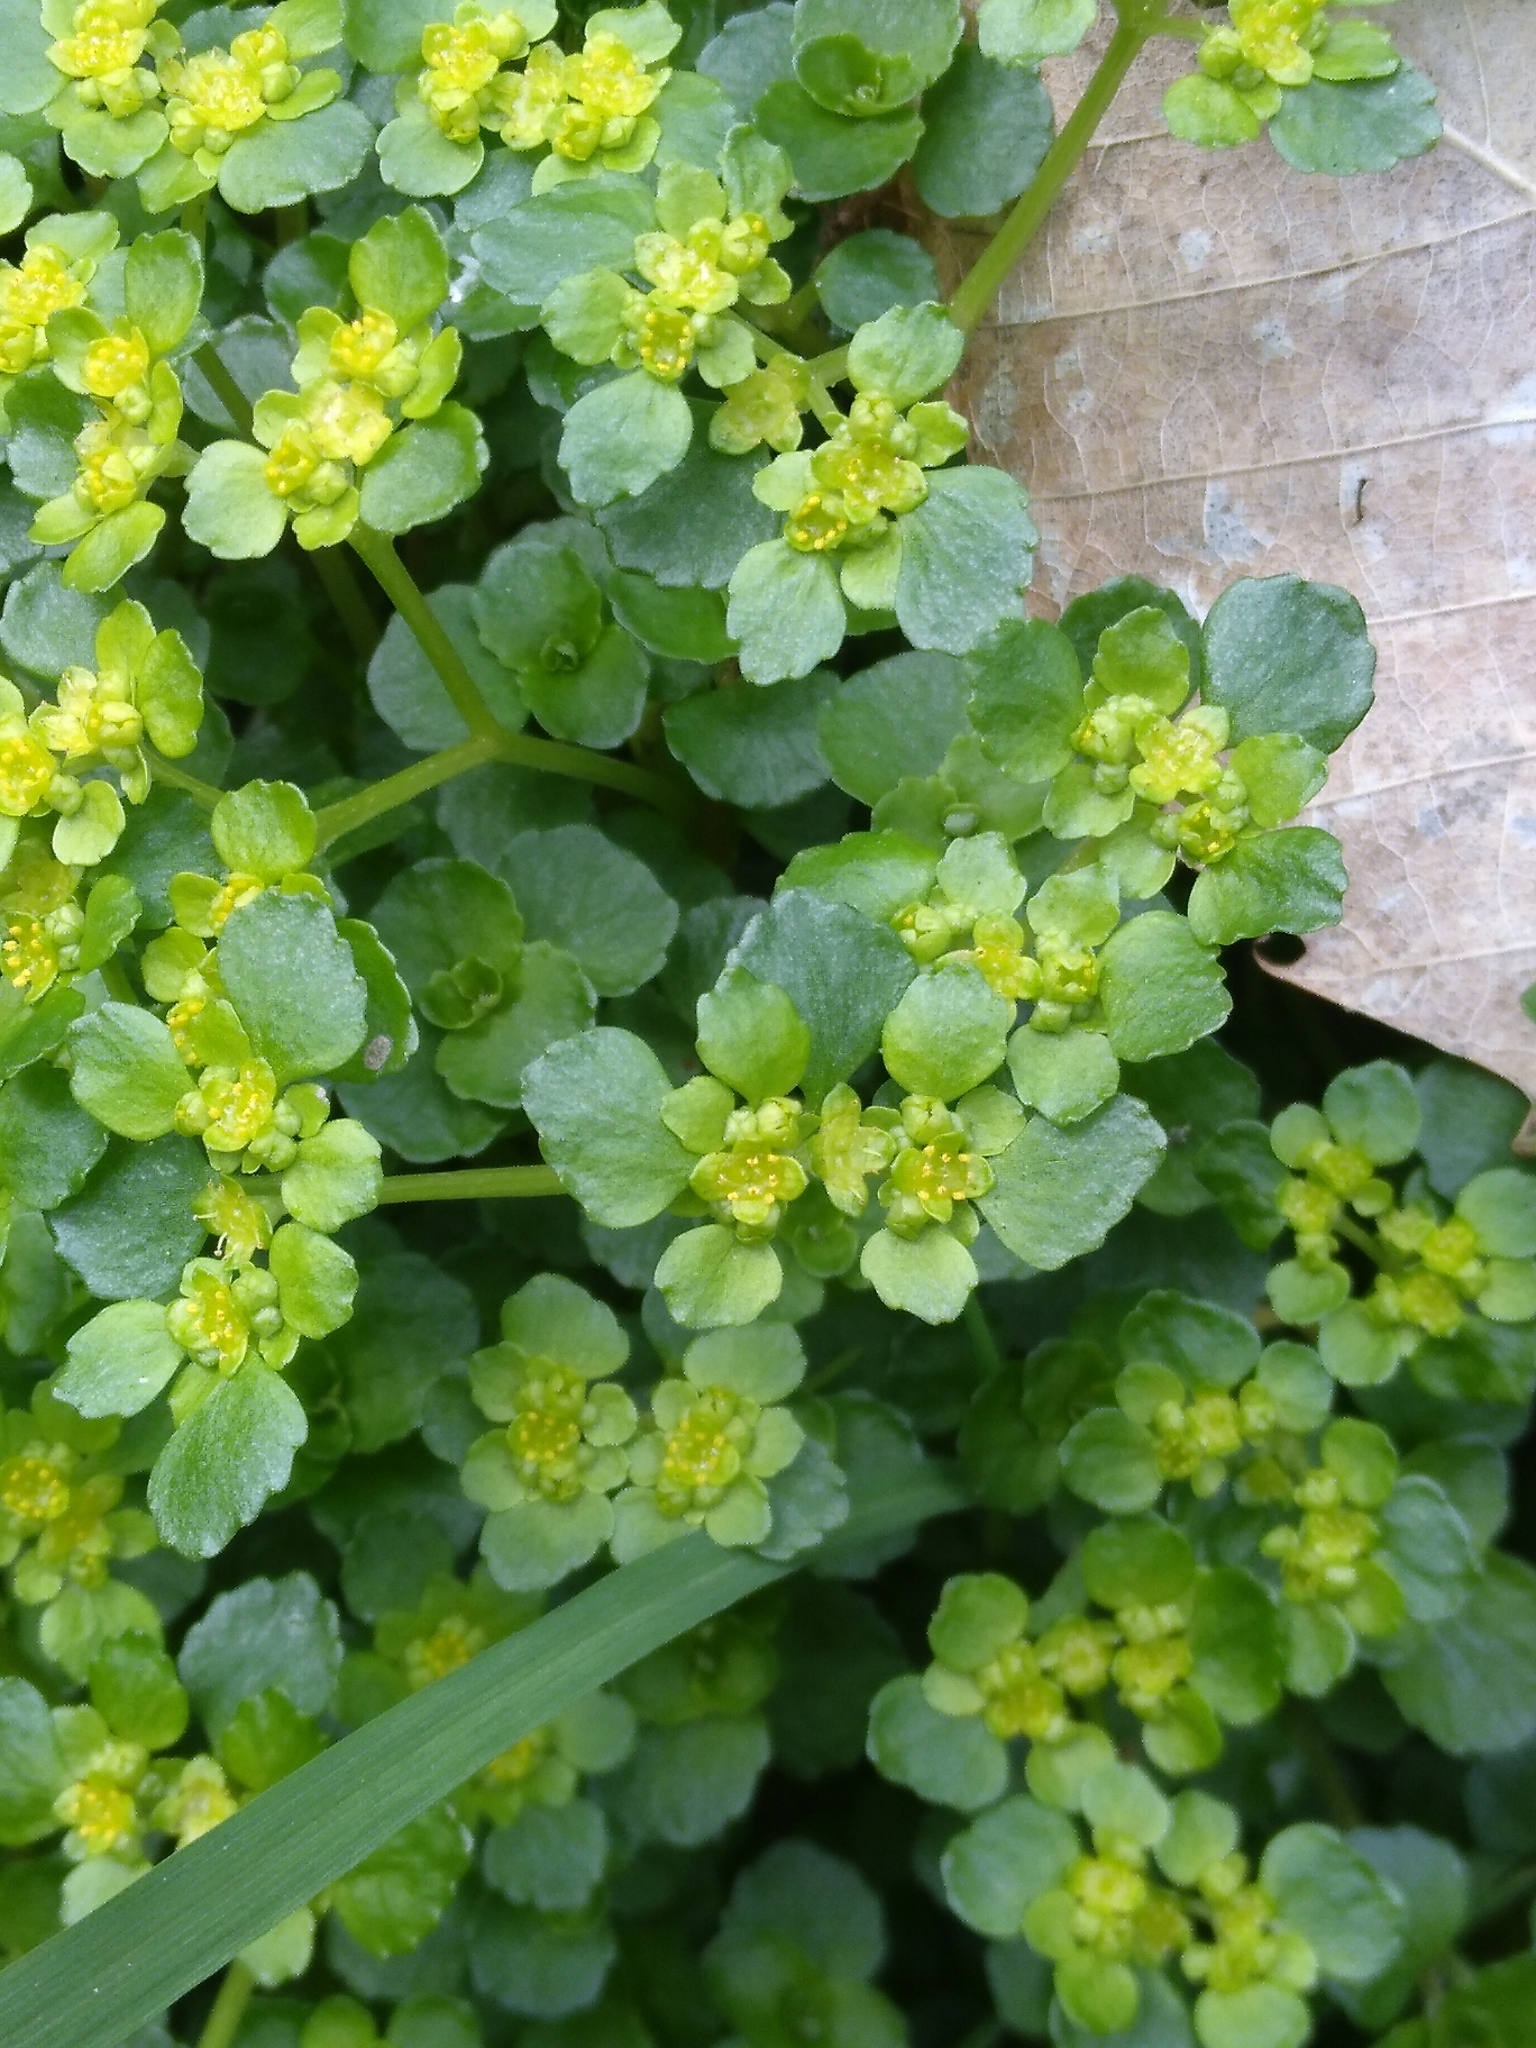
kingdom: Plantae
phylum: Tracheophyta
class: Magnoliopsida
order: Saxifragales
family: Saxifragaceae
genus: Chrysosplenium
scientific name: Chrysosplenium oppositifolium
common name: Opposite-leaved golden-saxifrage
